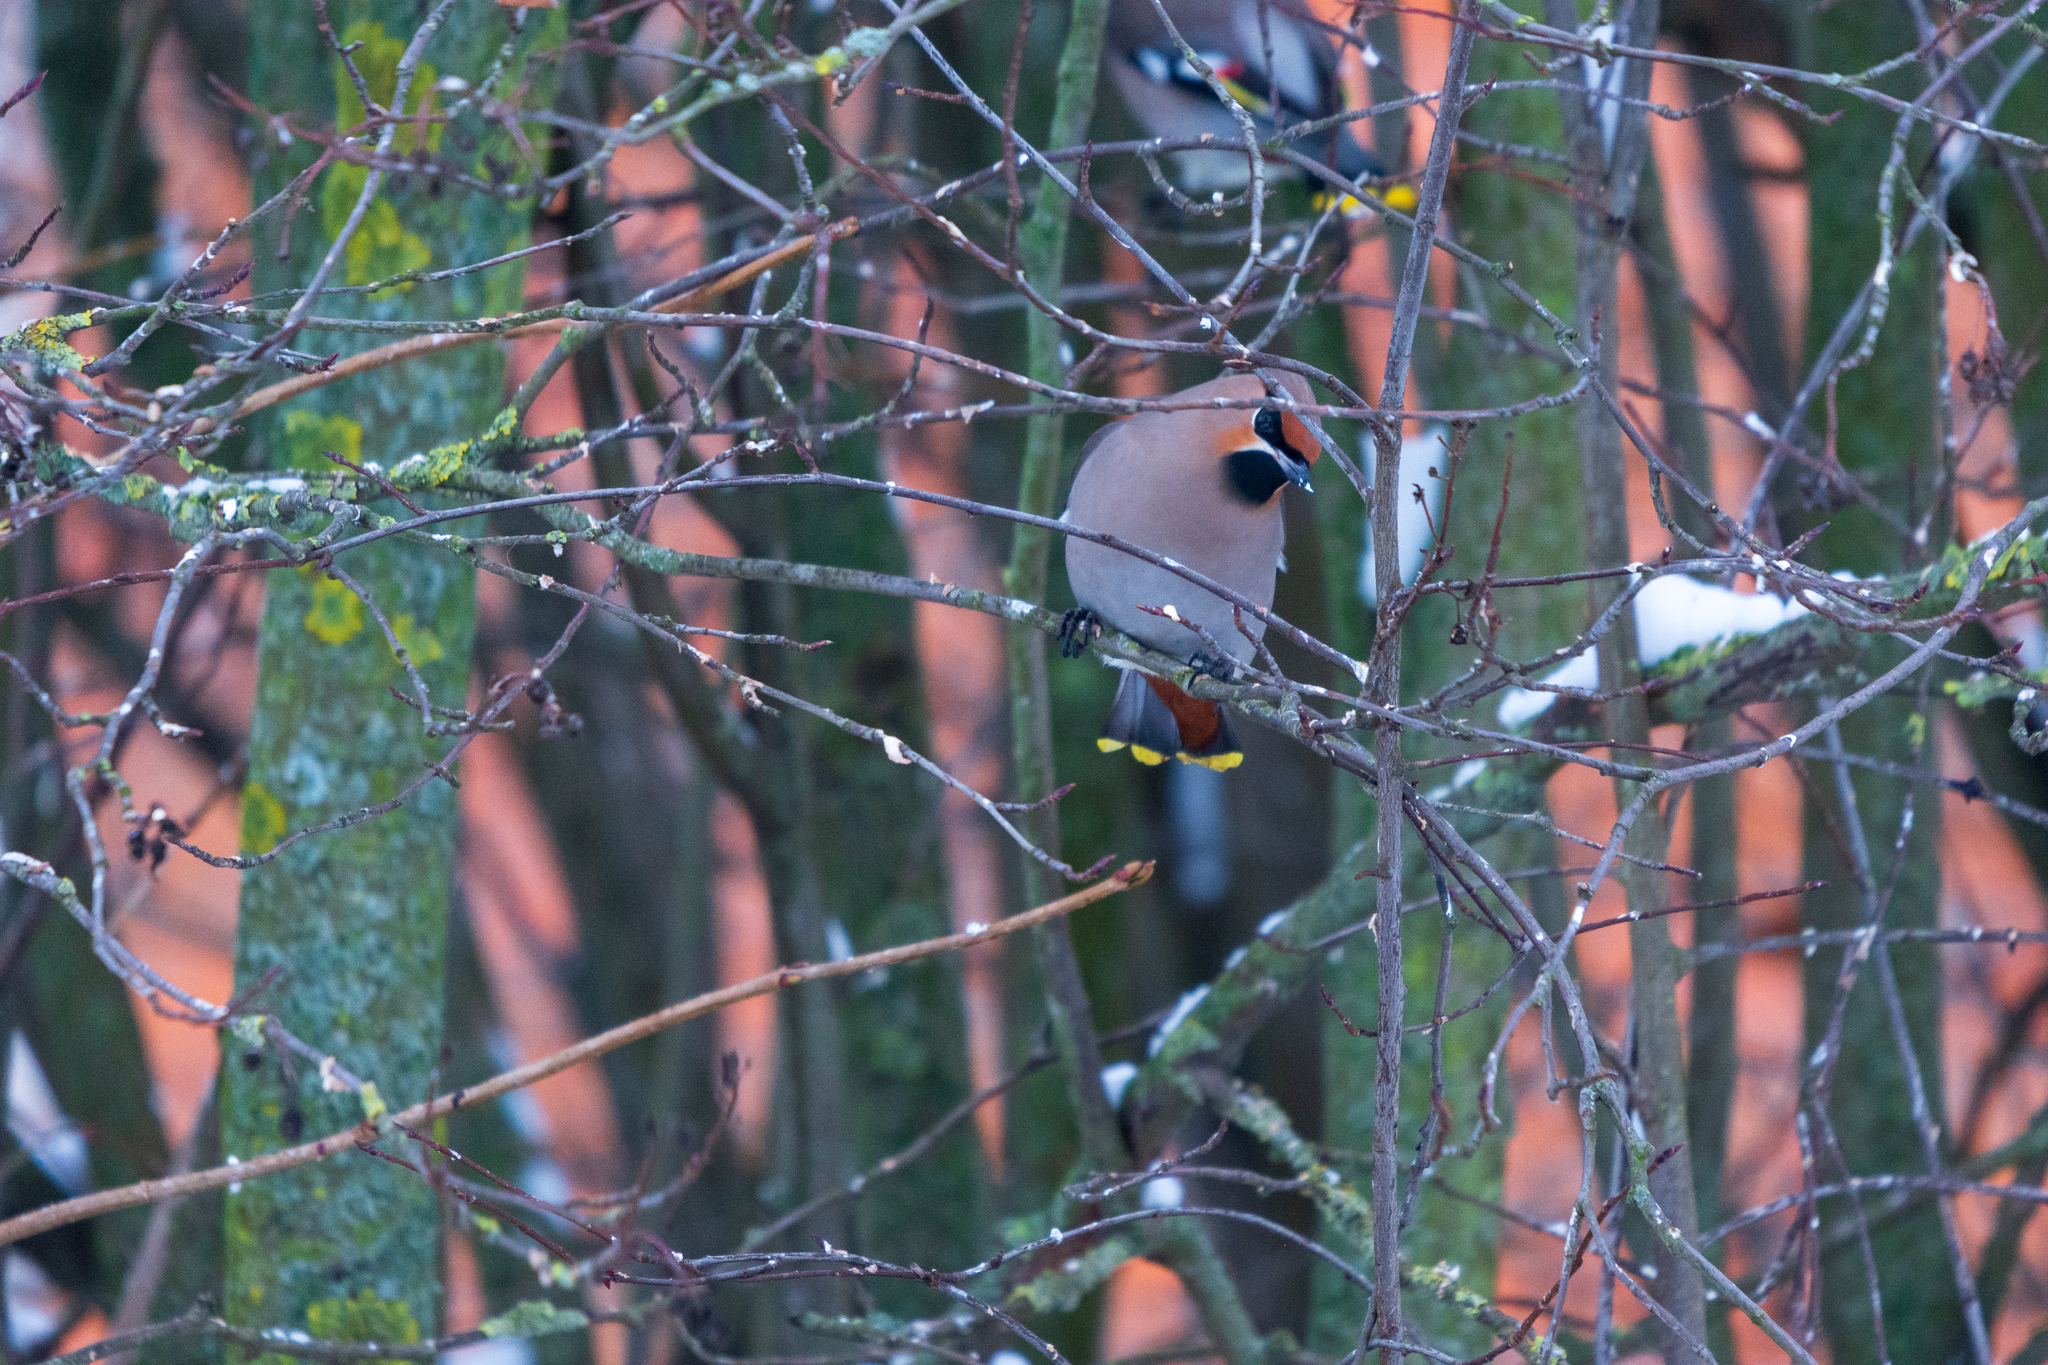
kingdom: Animalia
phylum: Chordata
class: Aves
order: Passeriformes
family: Bombycillidae
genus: Bombycilla
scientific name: Bombycilla garrulus
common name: Bohemian waxwing
